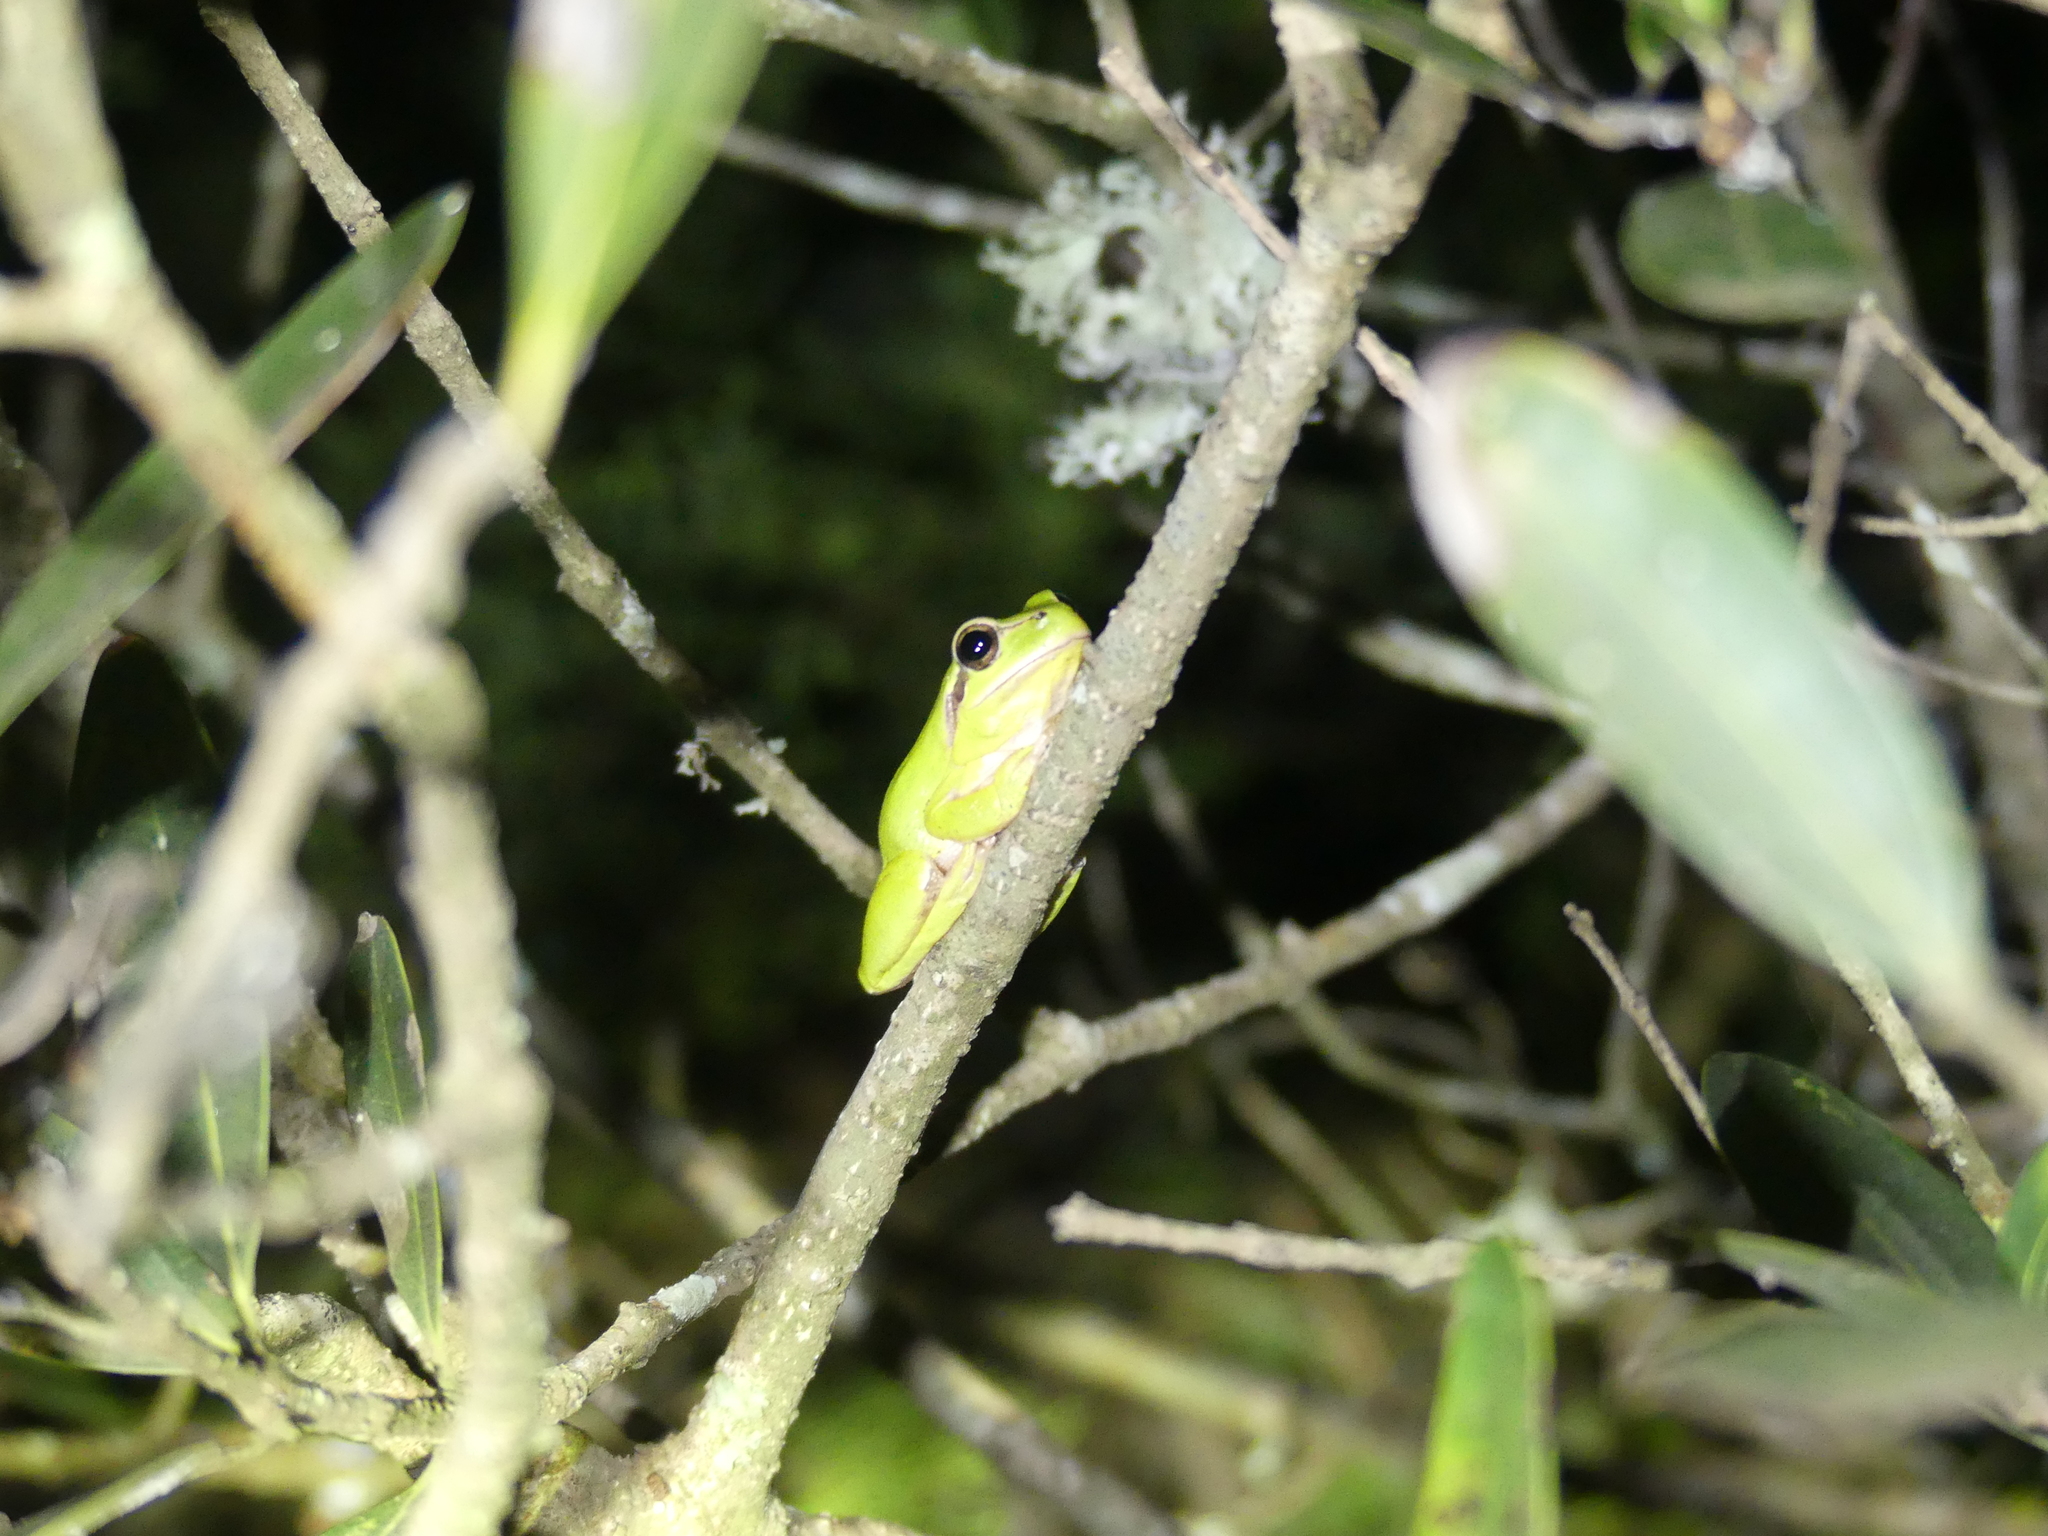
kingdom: Animalia
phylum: Chordata
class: Amphibia
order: Anura
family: Hylidae
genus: Hyla
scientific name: Hyla meridionalis
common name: Stripeless tree frog
